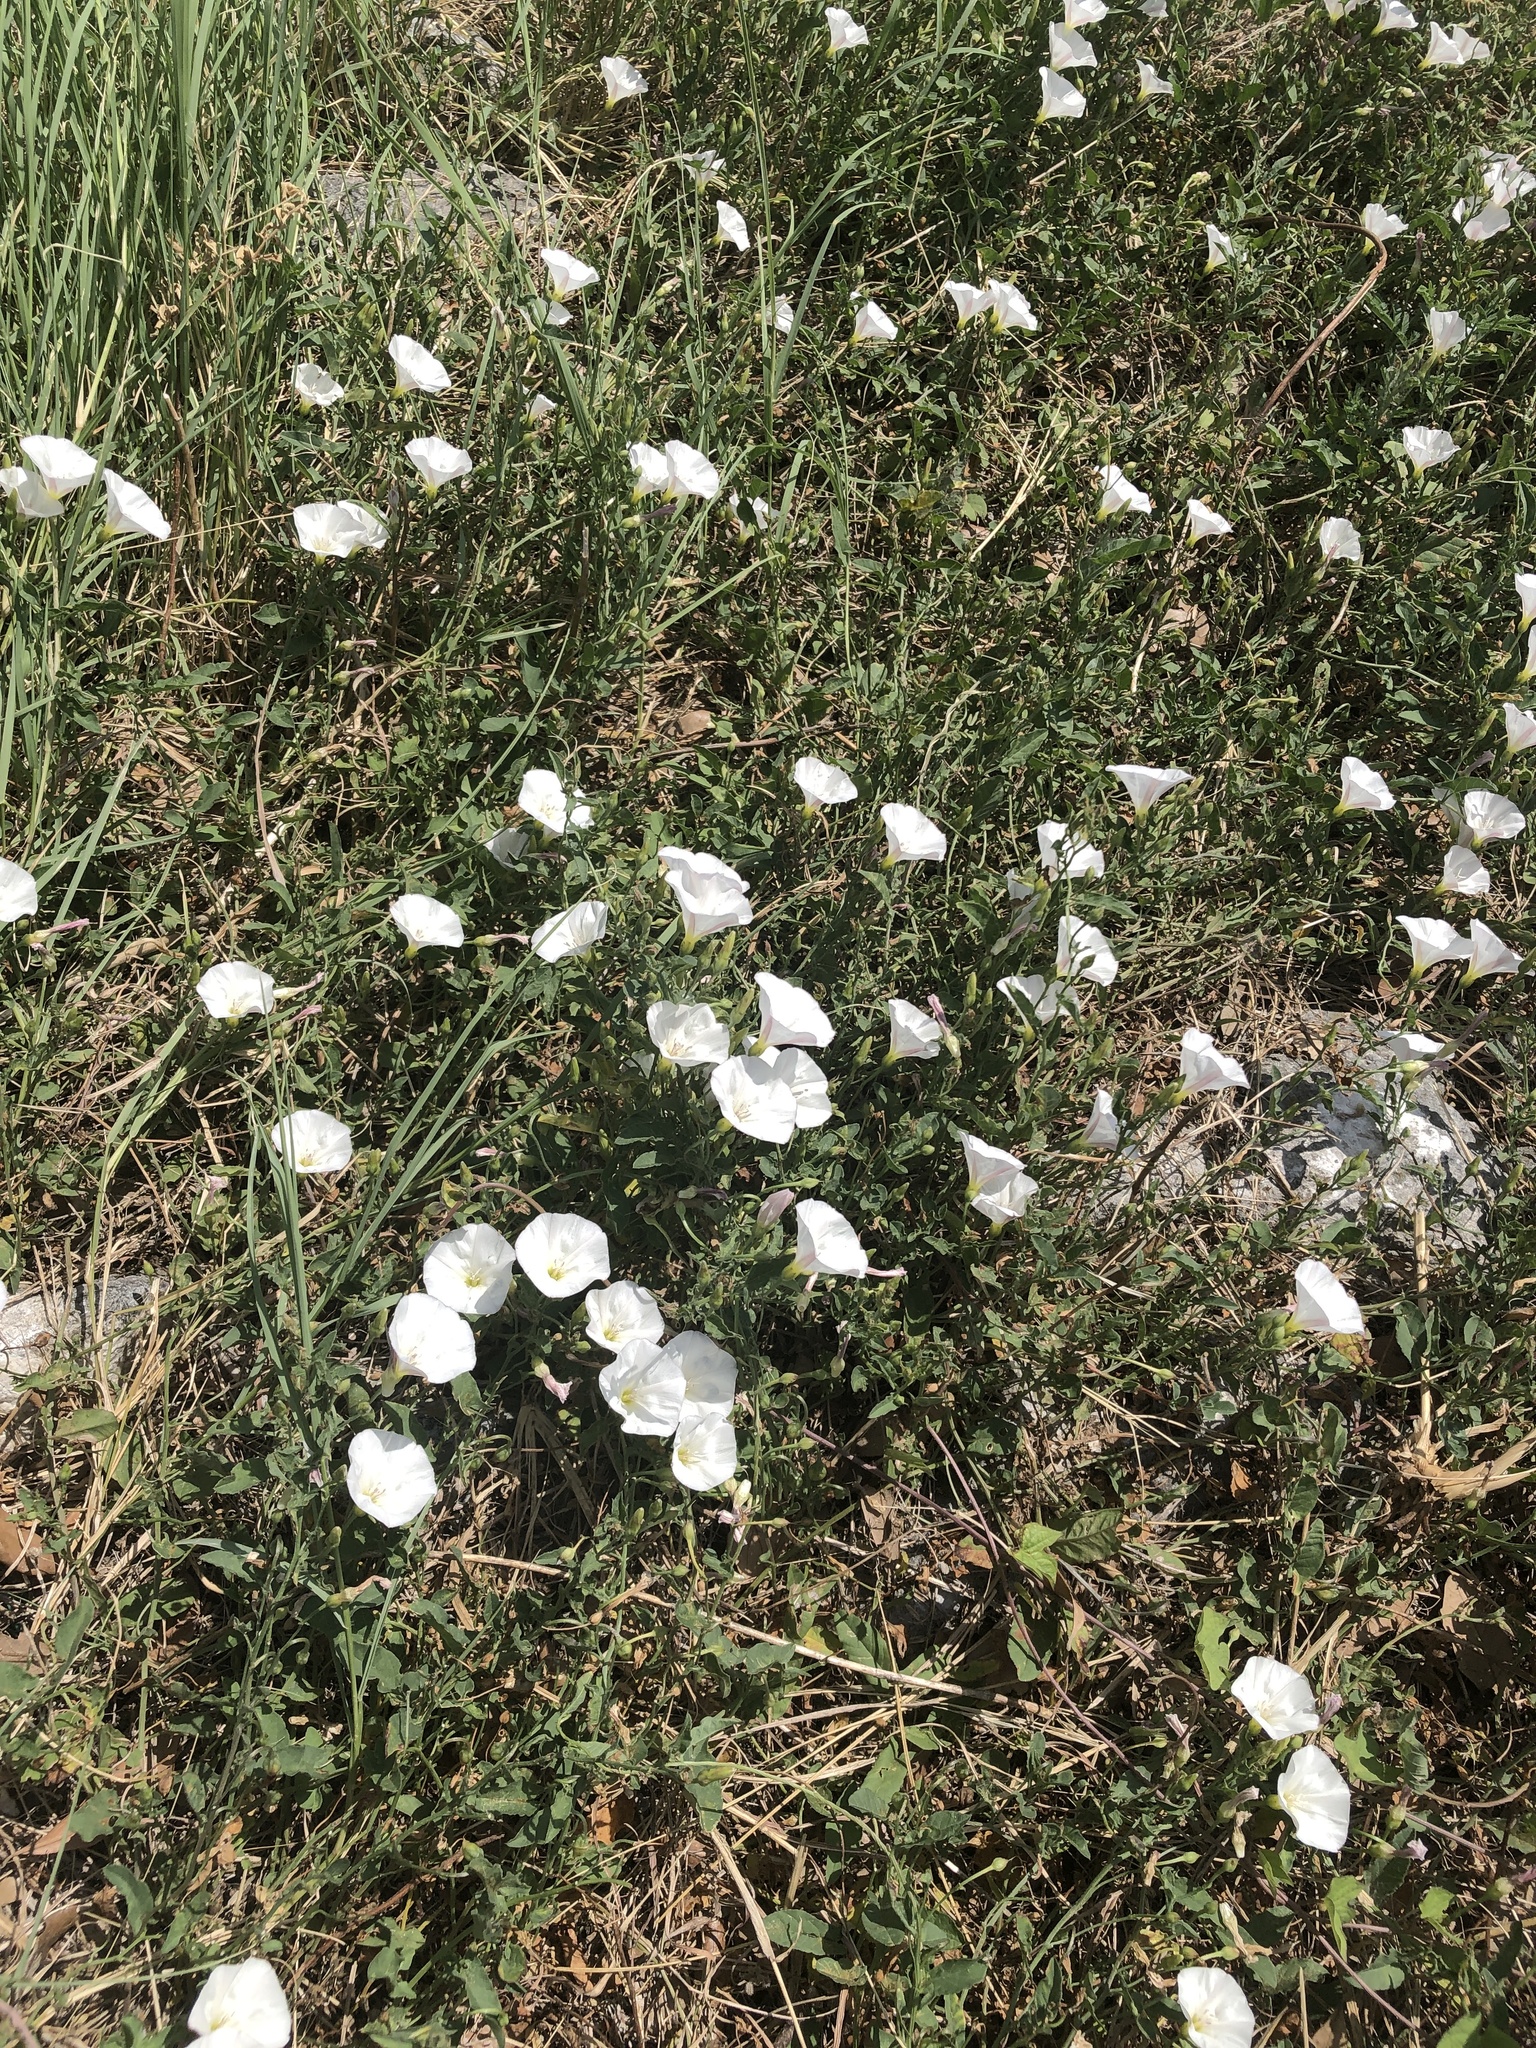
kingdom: Plantae
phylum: Tracheophyta
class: Magnoliopsida
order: Solanales
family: Convolvulaceae
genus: Convolvulus
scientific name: Convolvulus arvensis
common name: Field bindweed
